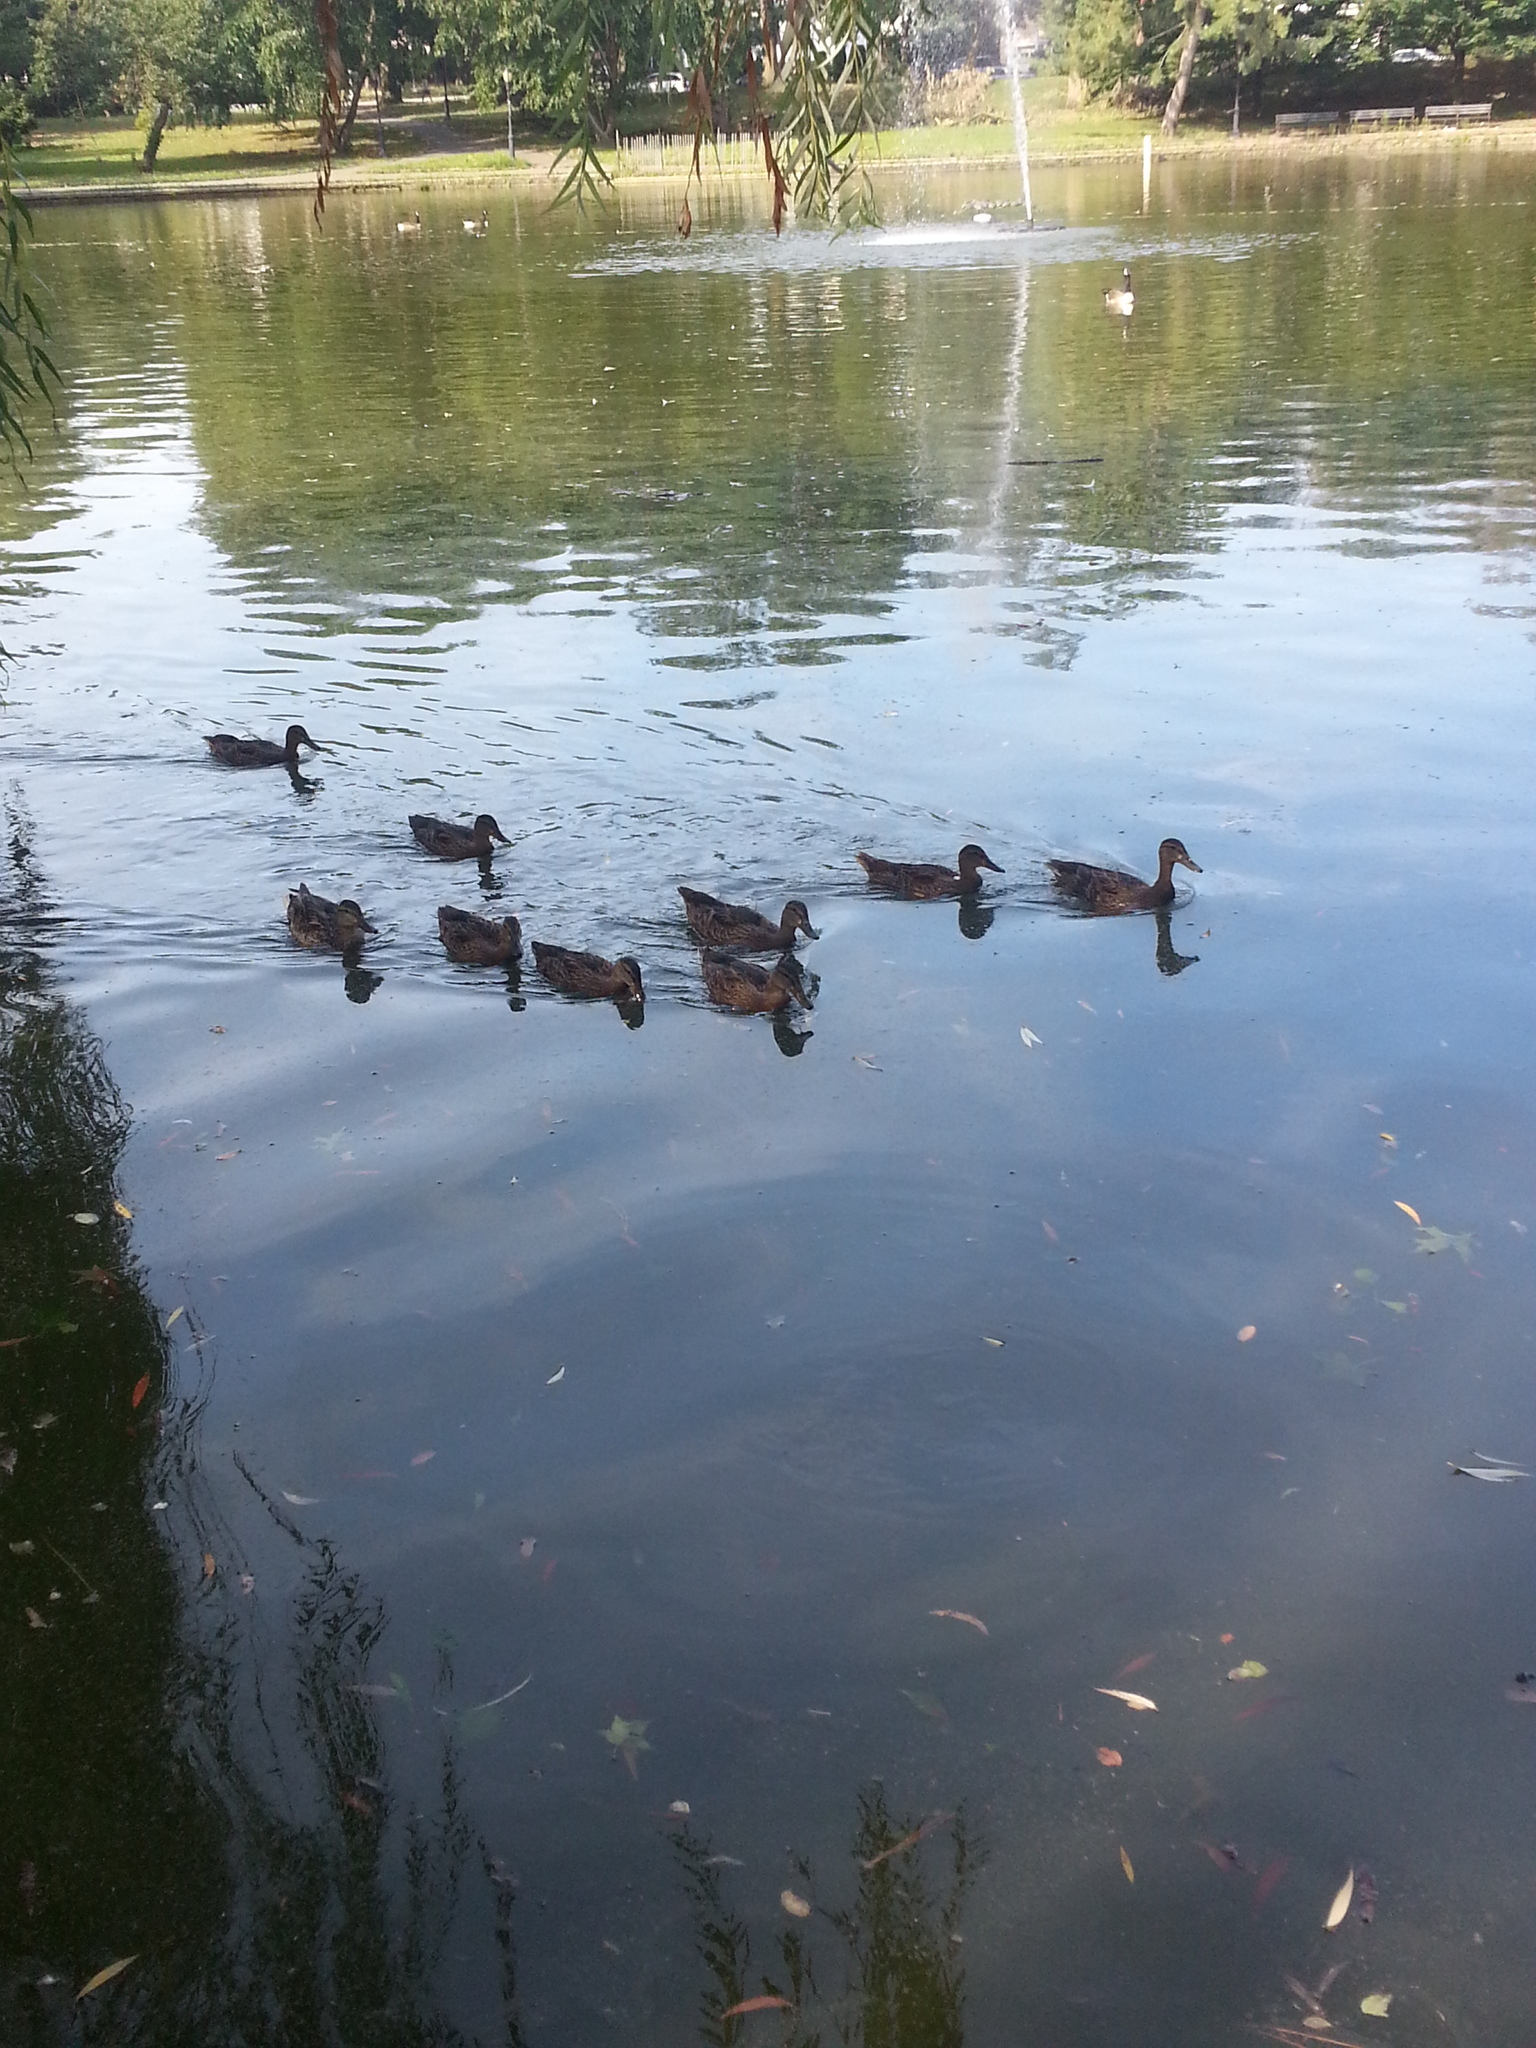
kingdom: Animalia
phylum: Chordata
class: Aves
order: Anseriformes
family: Anatidae
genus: Anas
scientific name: Anas platyrhynchos
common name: Mallard
